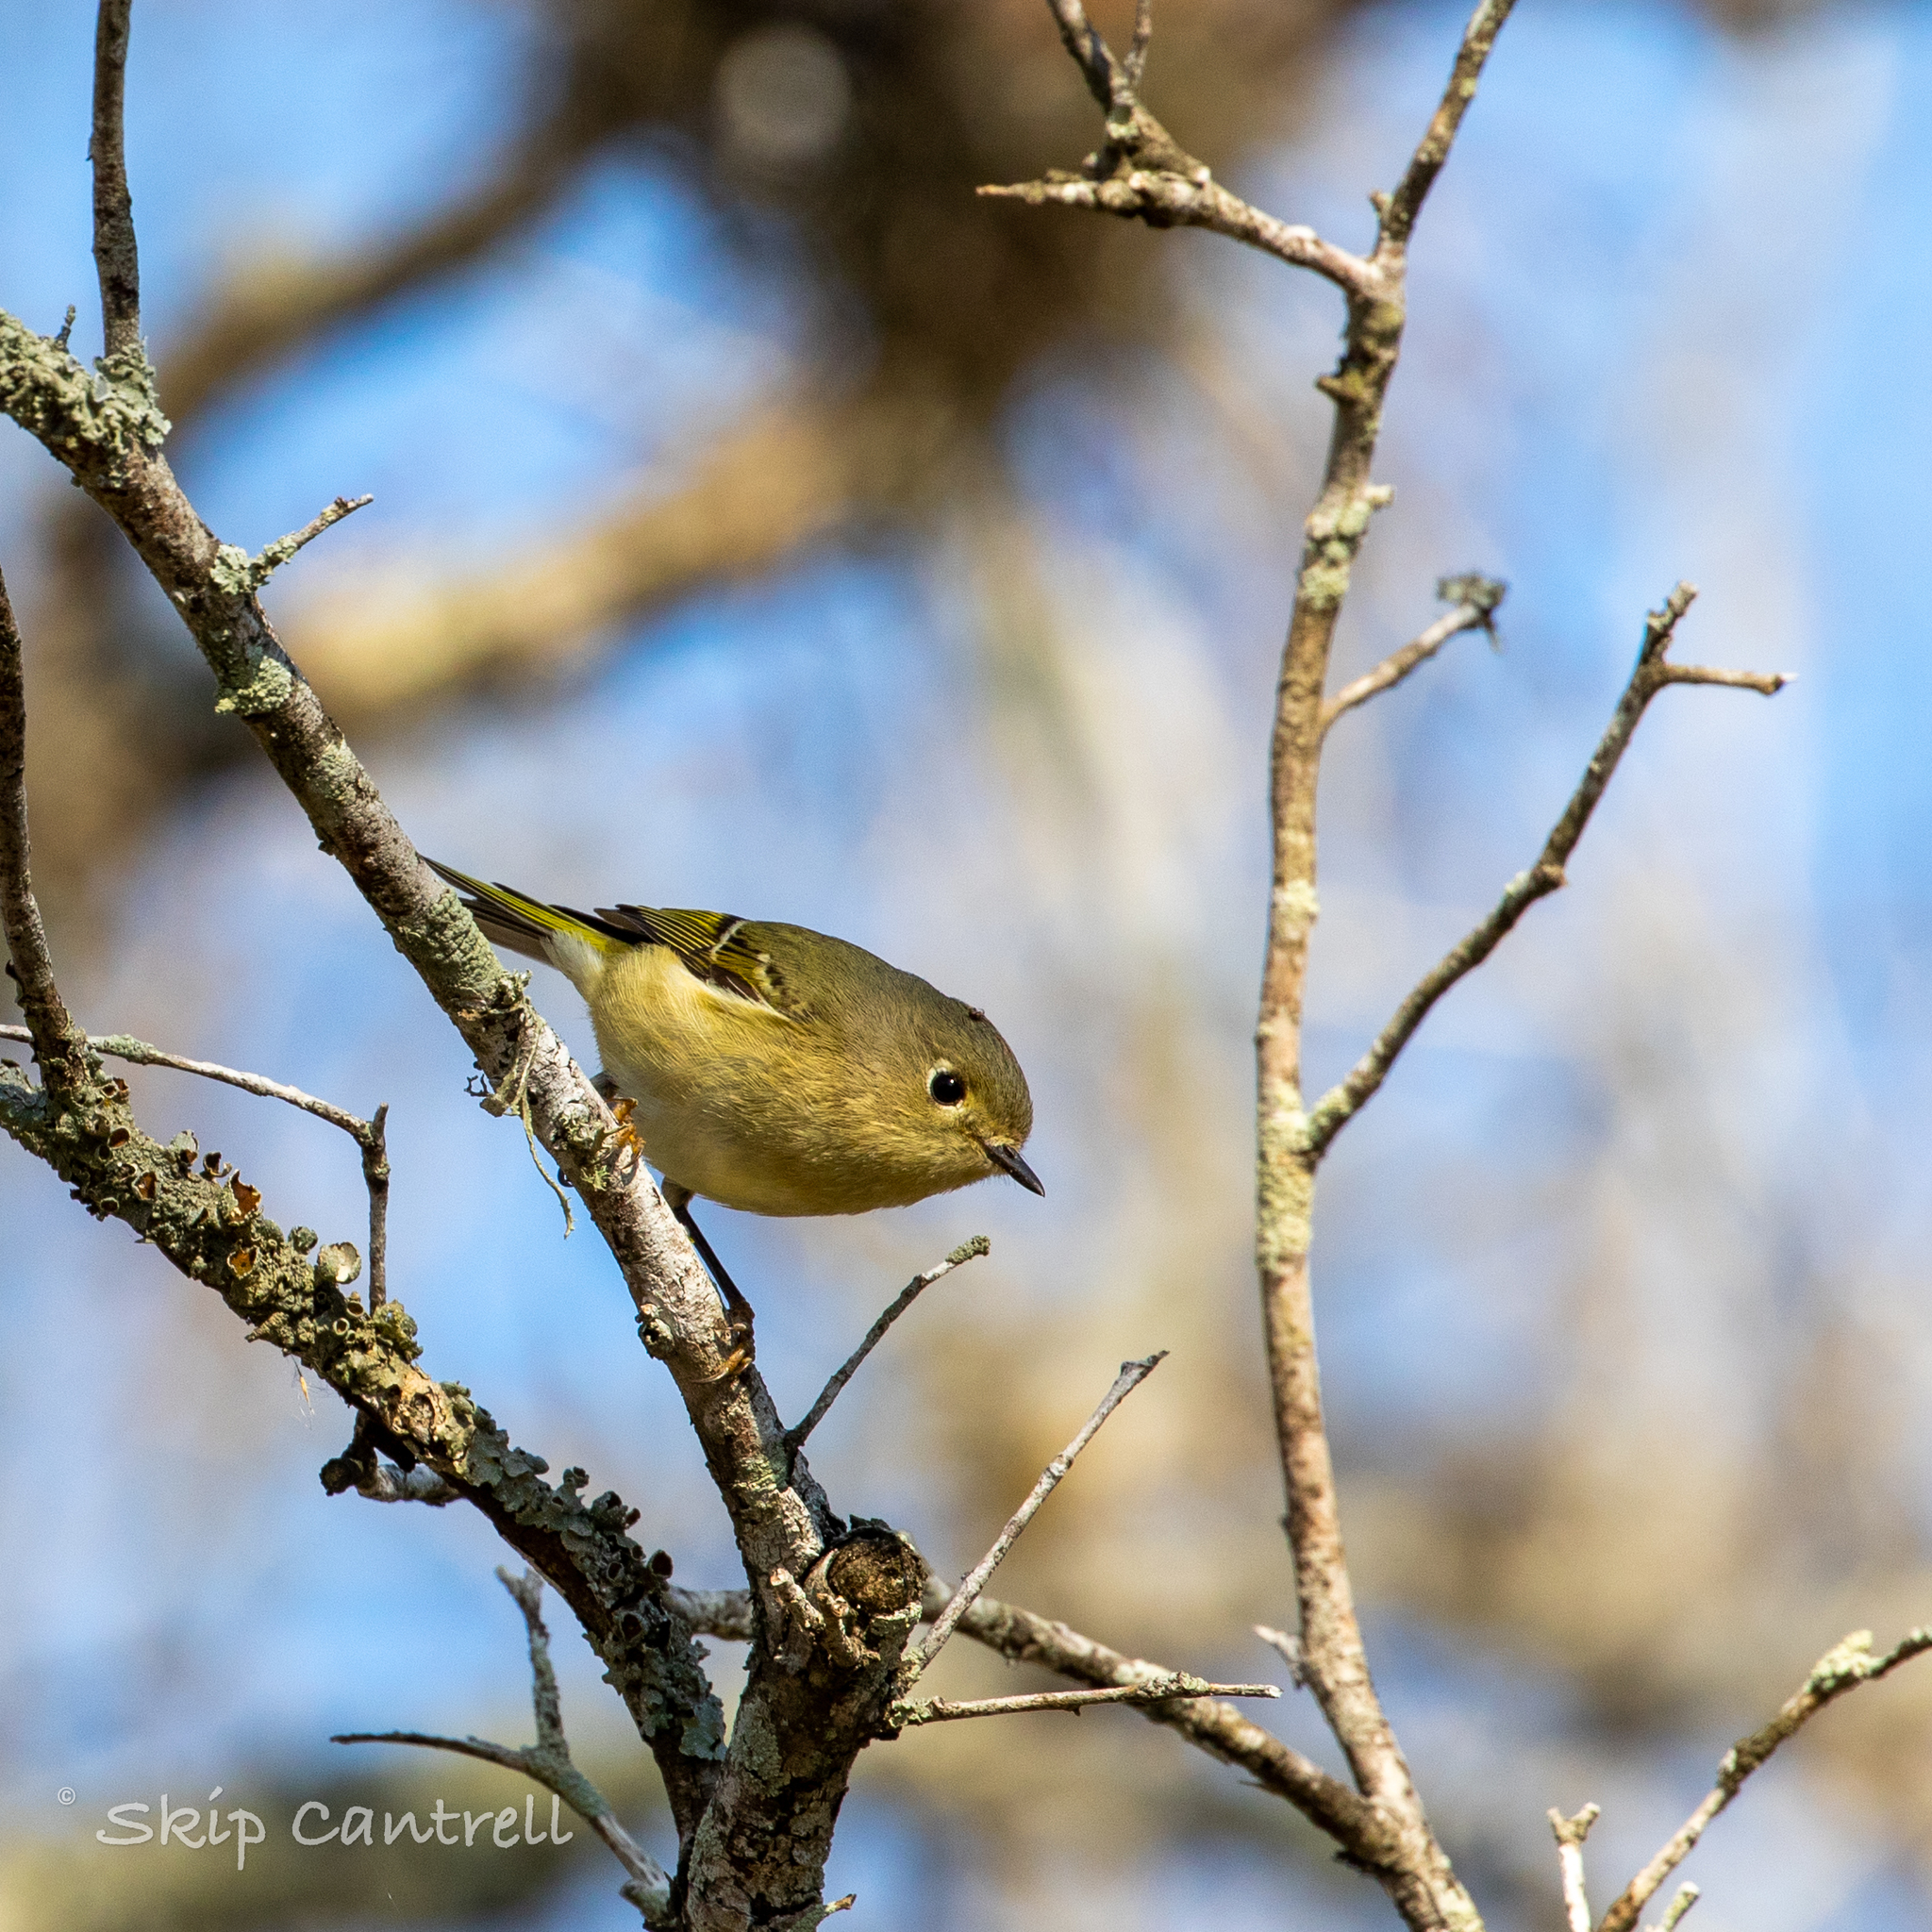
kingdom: Animalia
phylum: Chordata
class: Aves
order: Passeriformes
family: Regulidae
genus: Regulus
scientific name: Regulus calendula
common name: Ruby-crowned kinglet
